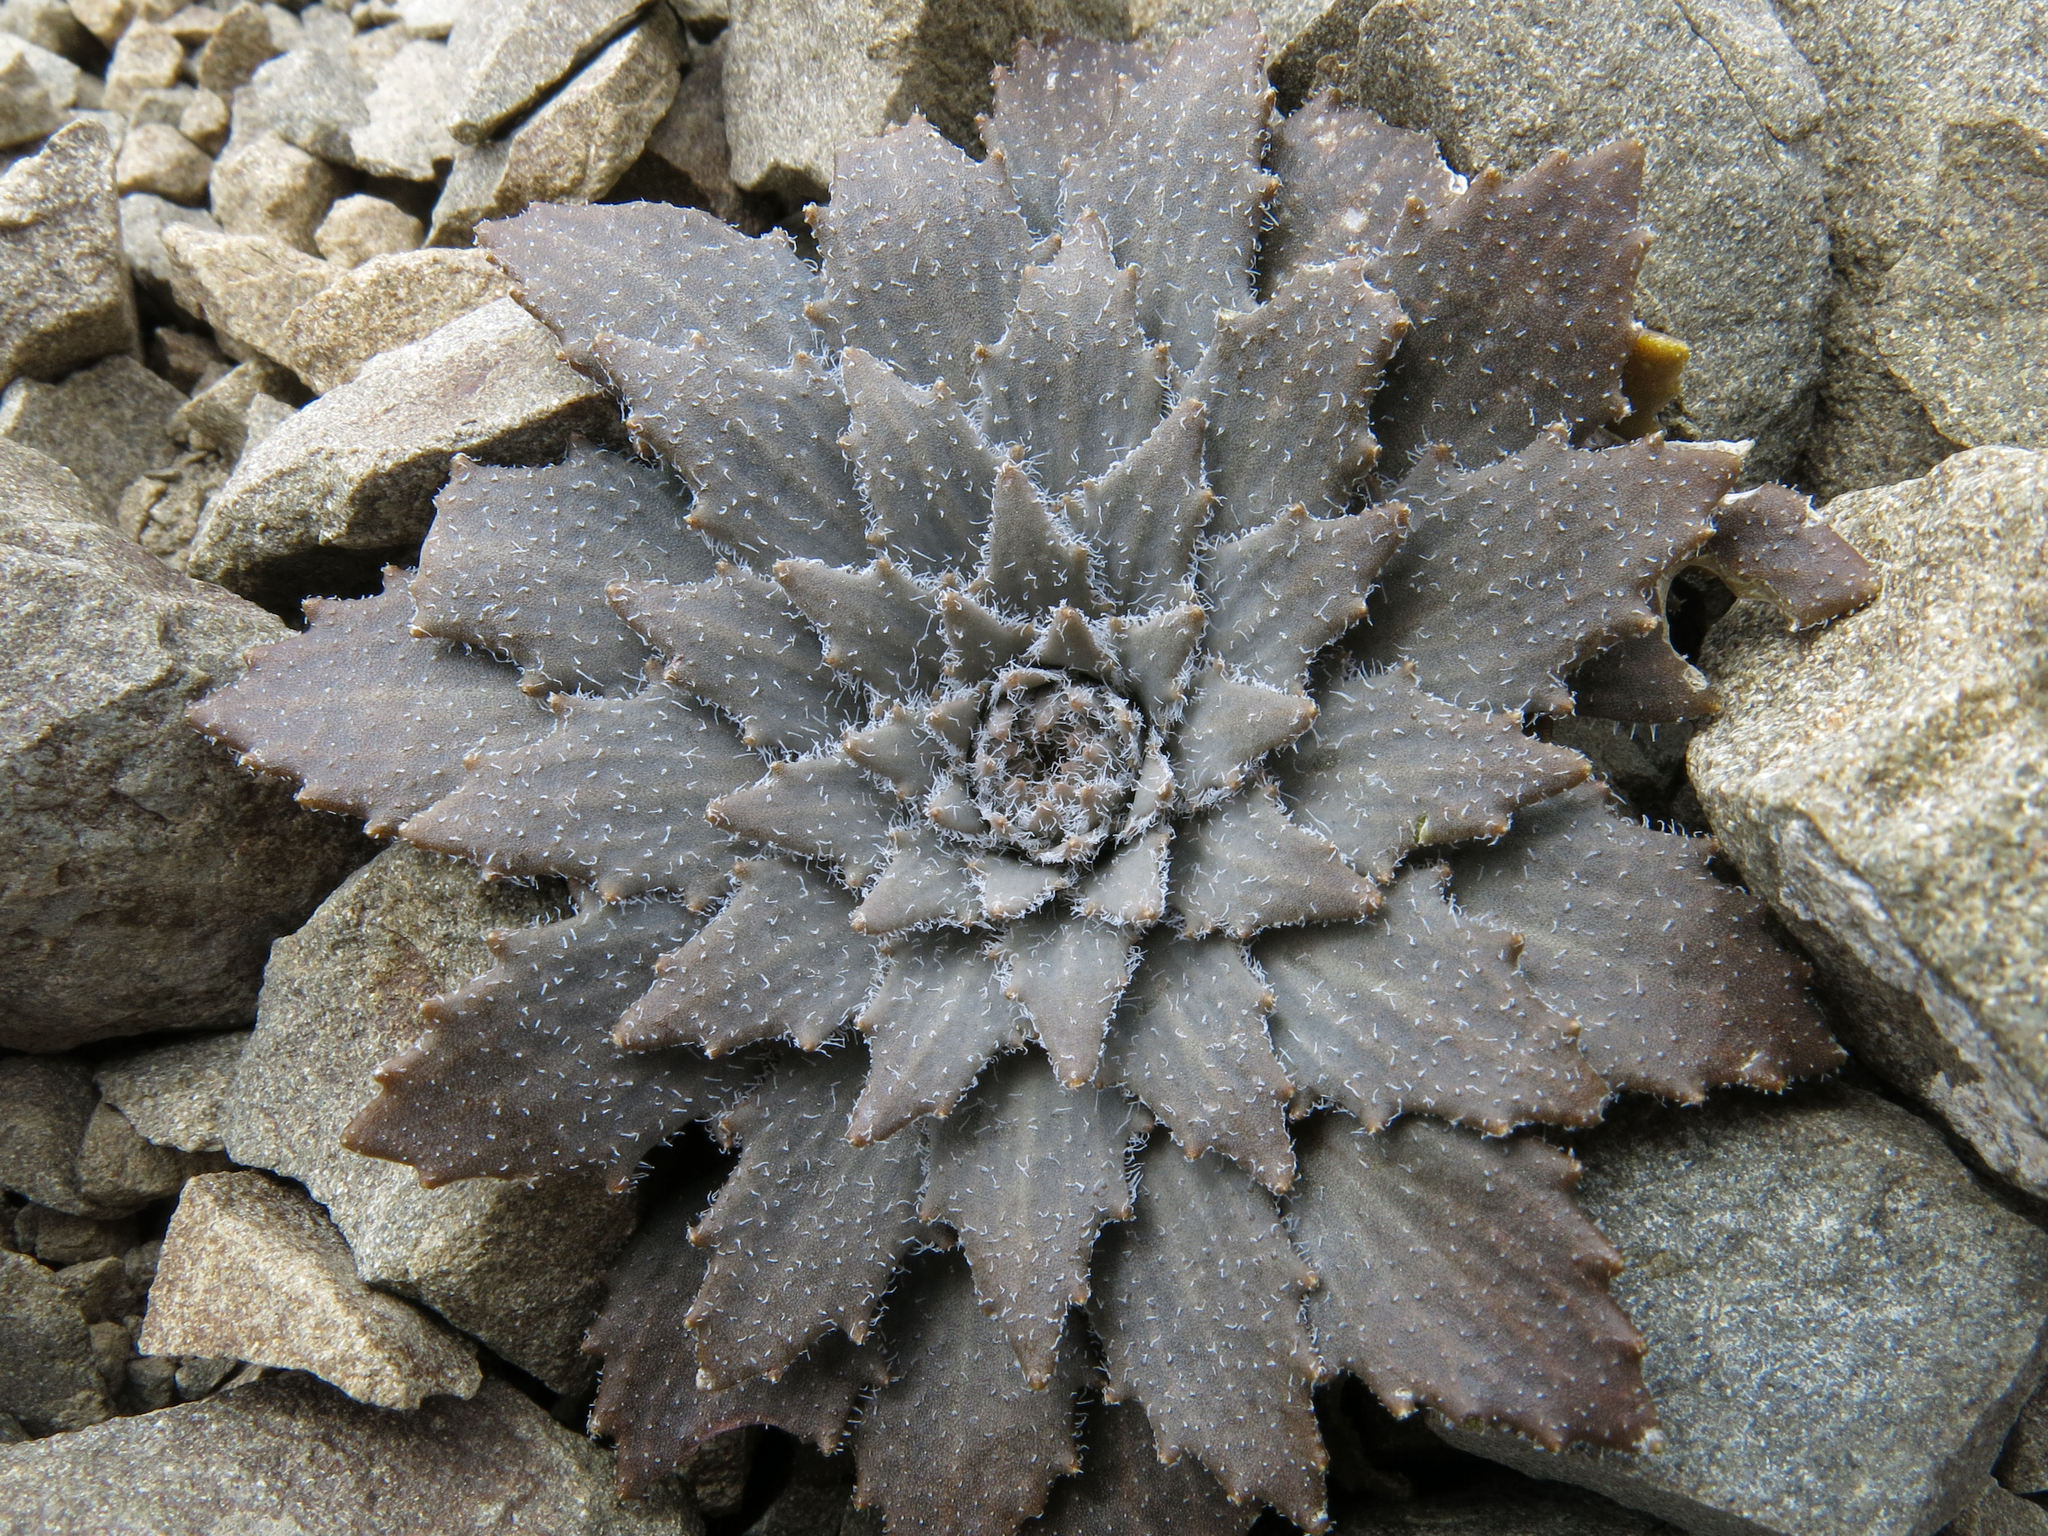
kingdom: Plantae
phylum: Tracheophyta
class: Magnoliopsida
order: Brassicales
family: Brassicaceae
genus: Notothlaspi
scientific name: Notothlaspi rosulatum
